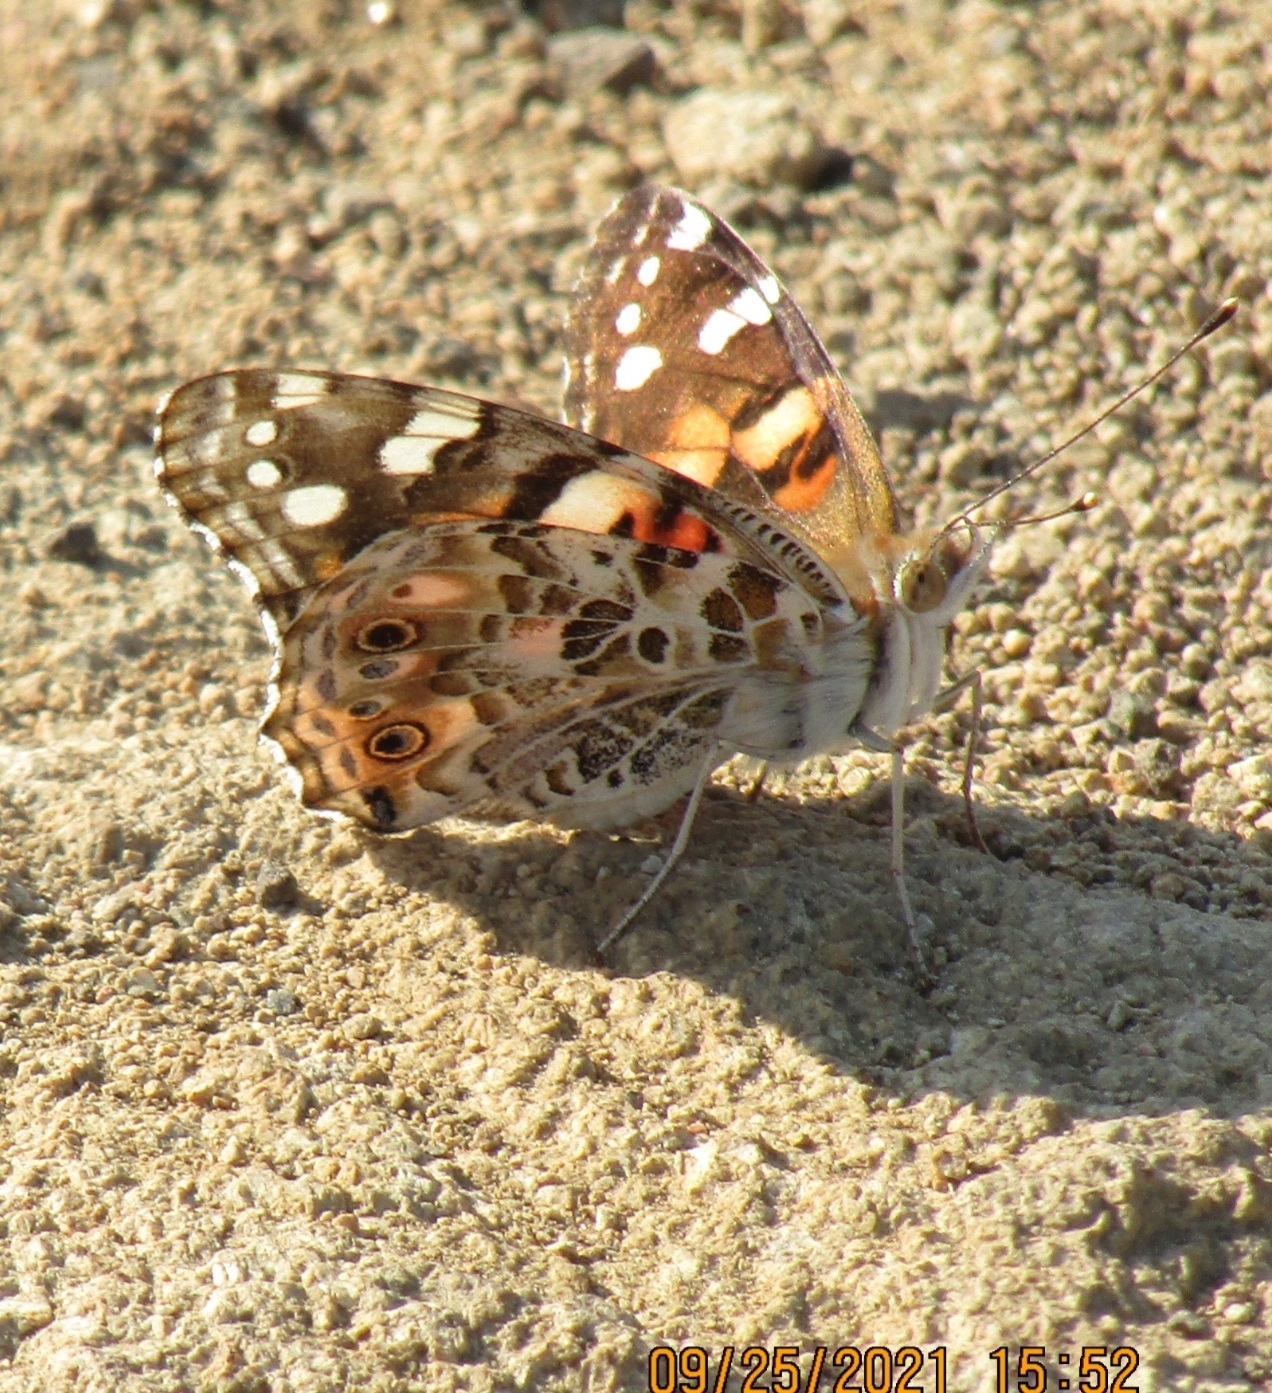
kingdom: Animalia
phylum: Arthropoda
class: Insecta
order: Lepidoptera
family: Nymphalidae
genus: Vanessa
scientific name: Vanessa cardui
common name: Painted lady
